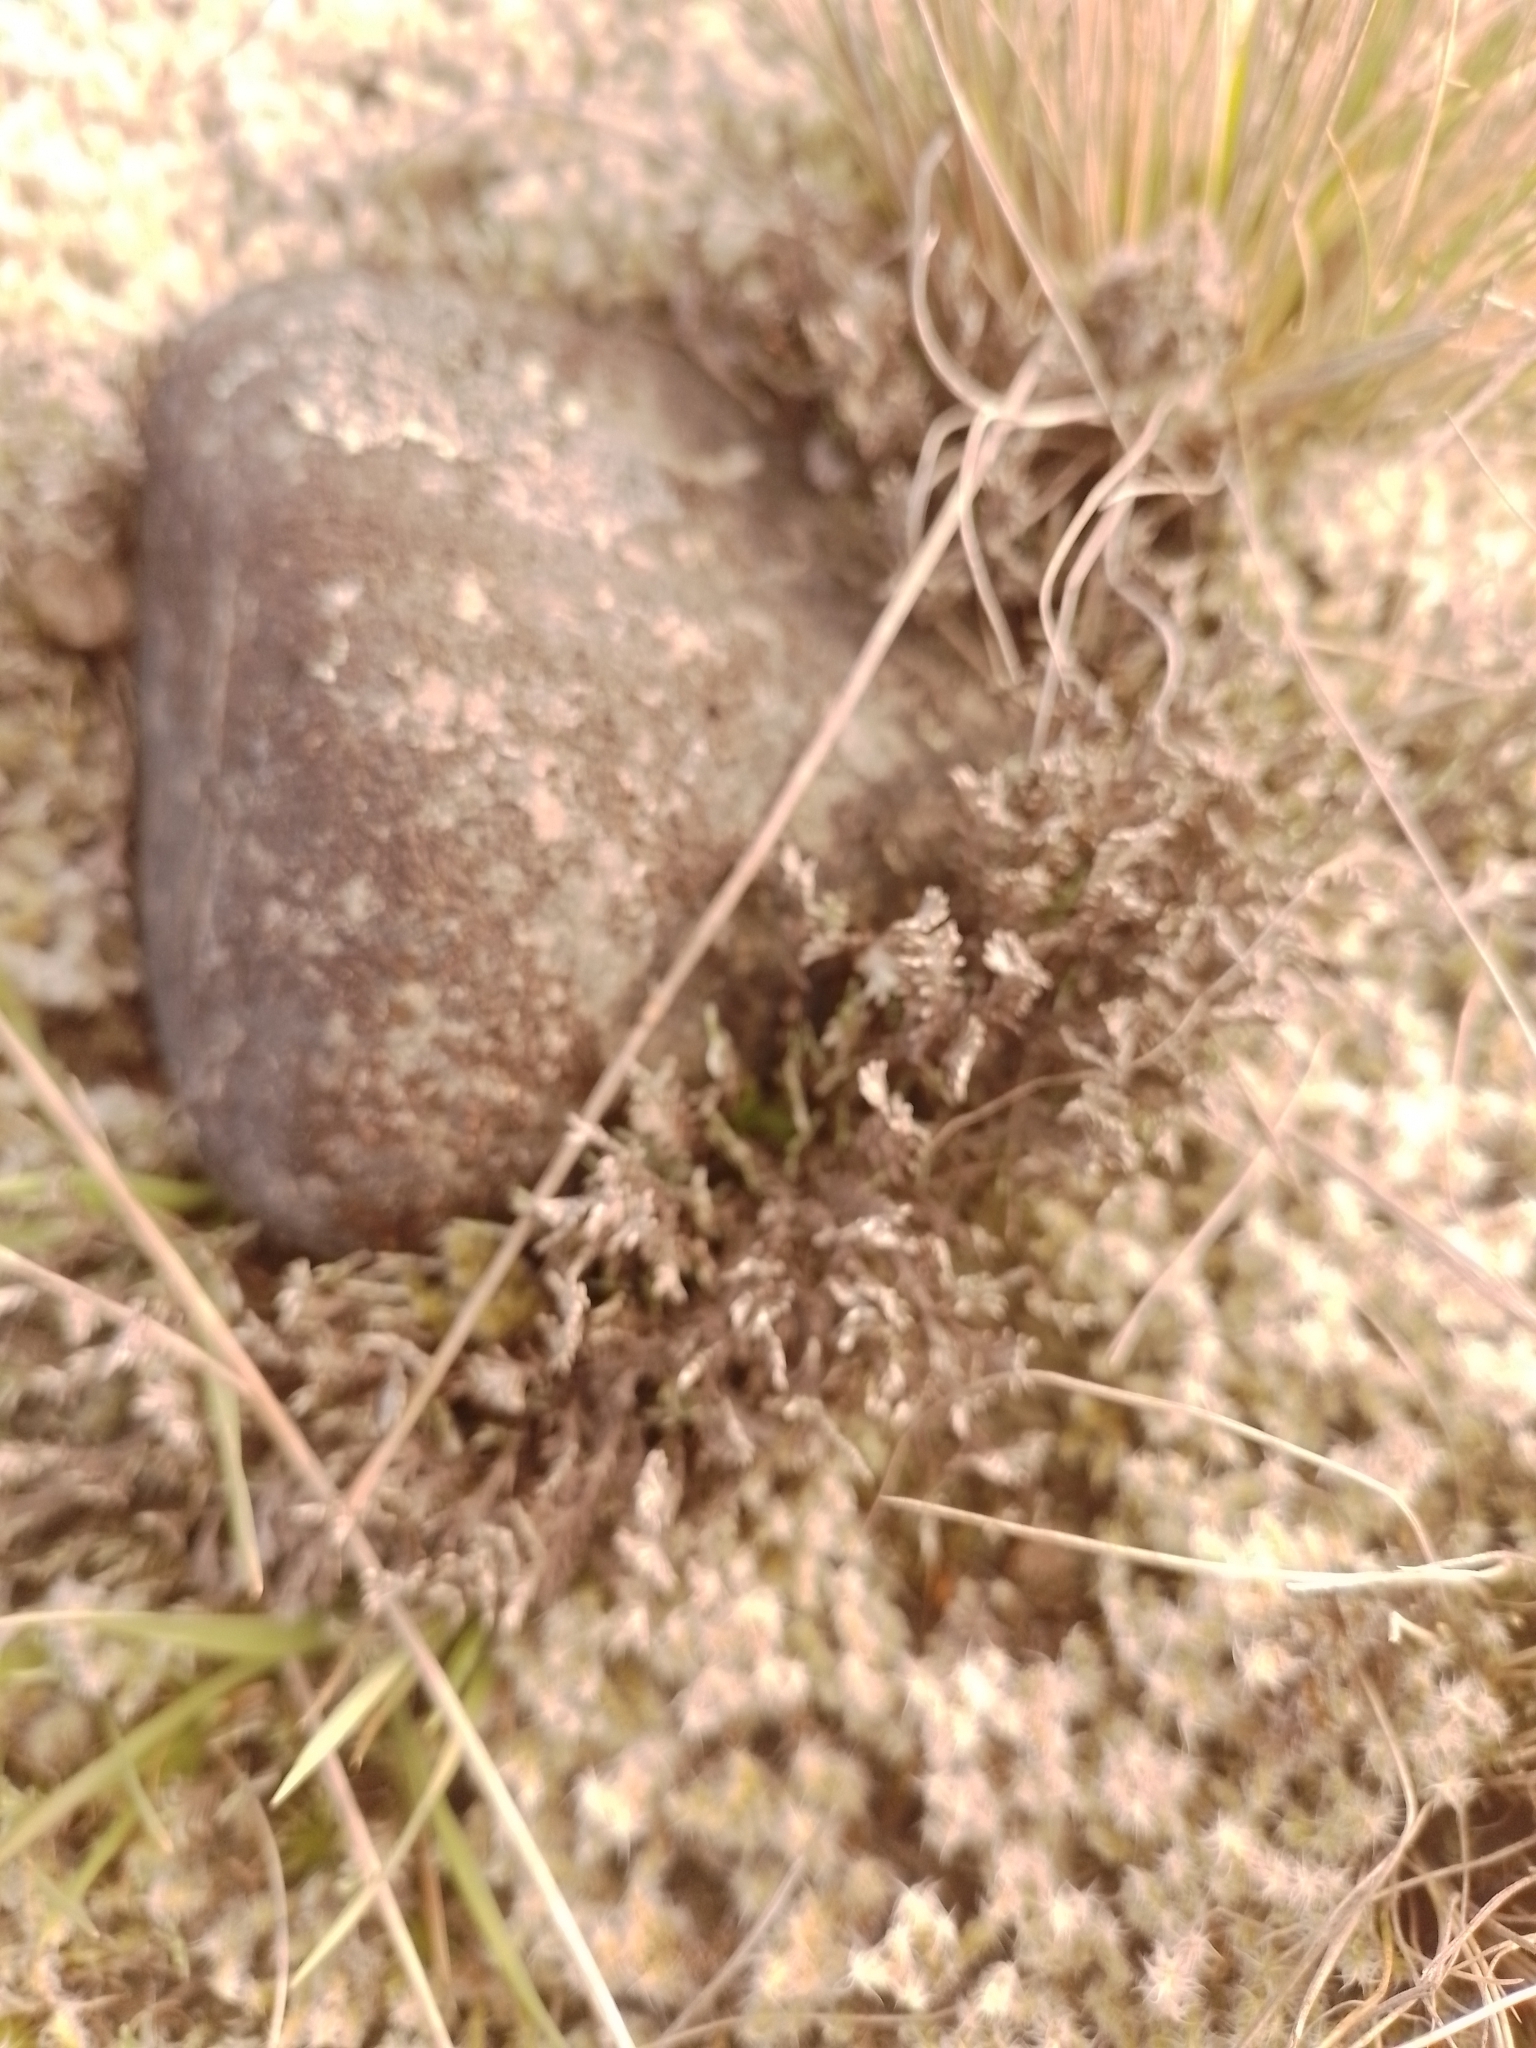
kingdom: Plantae
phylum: Tracheophyta
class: Magnoliopsida
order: Asterales
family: Asteraceae
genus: Raoulia
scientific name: Raoulia monroi
